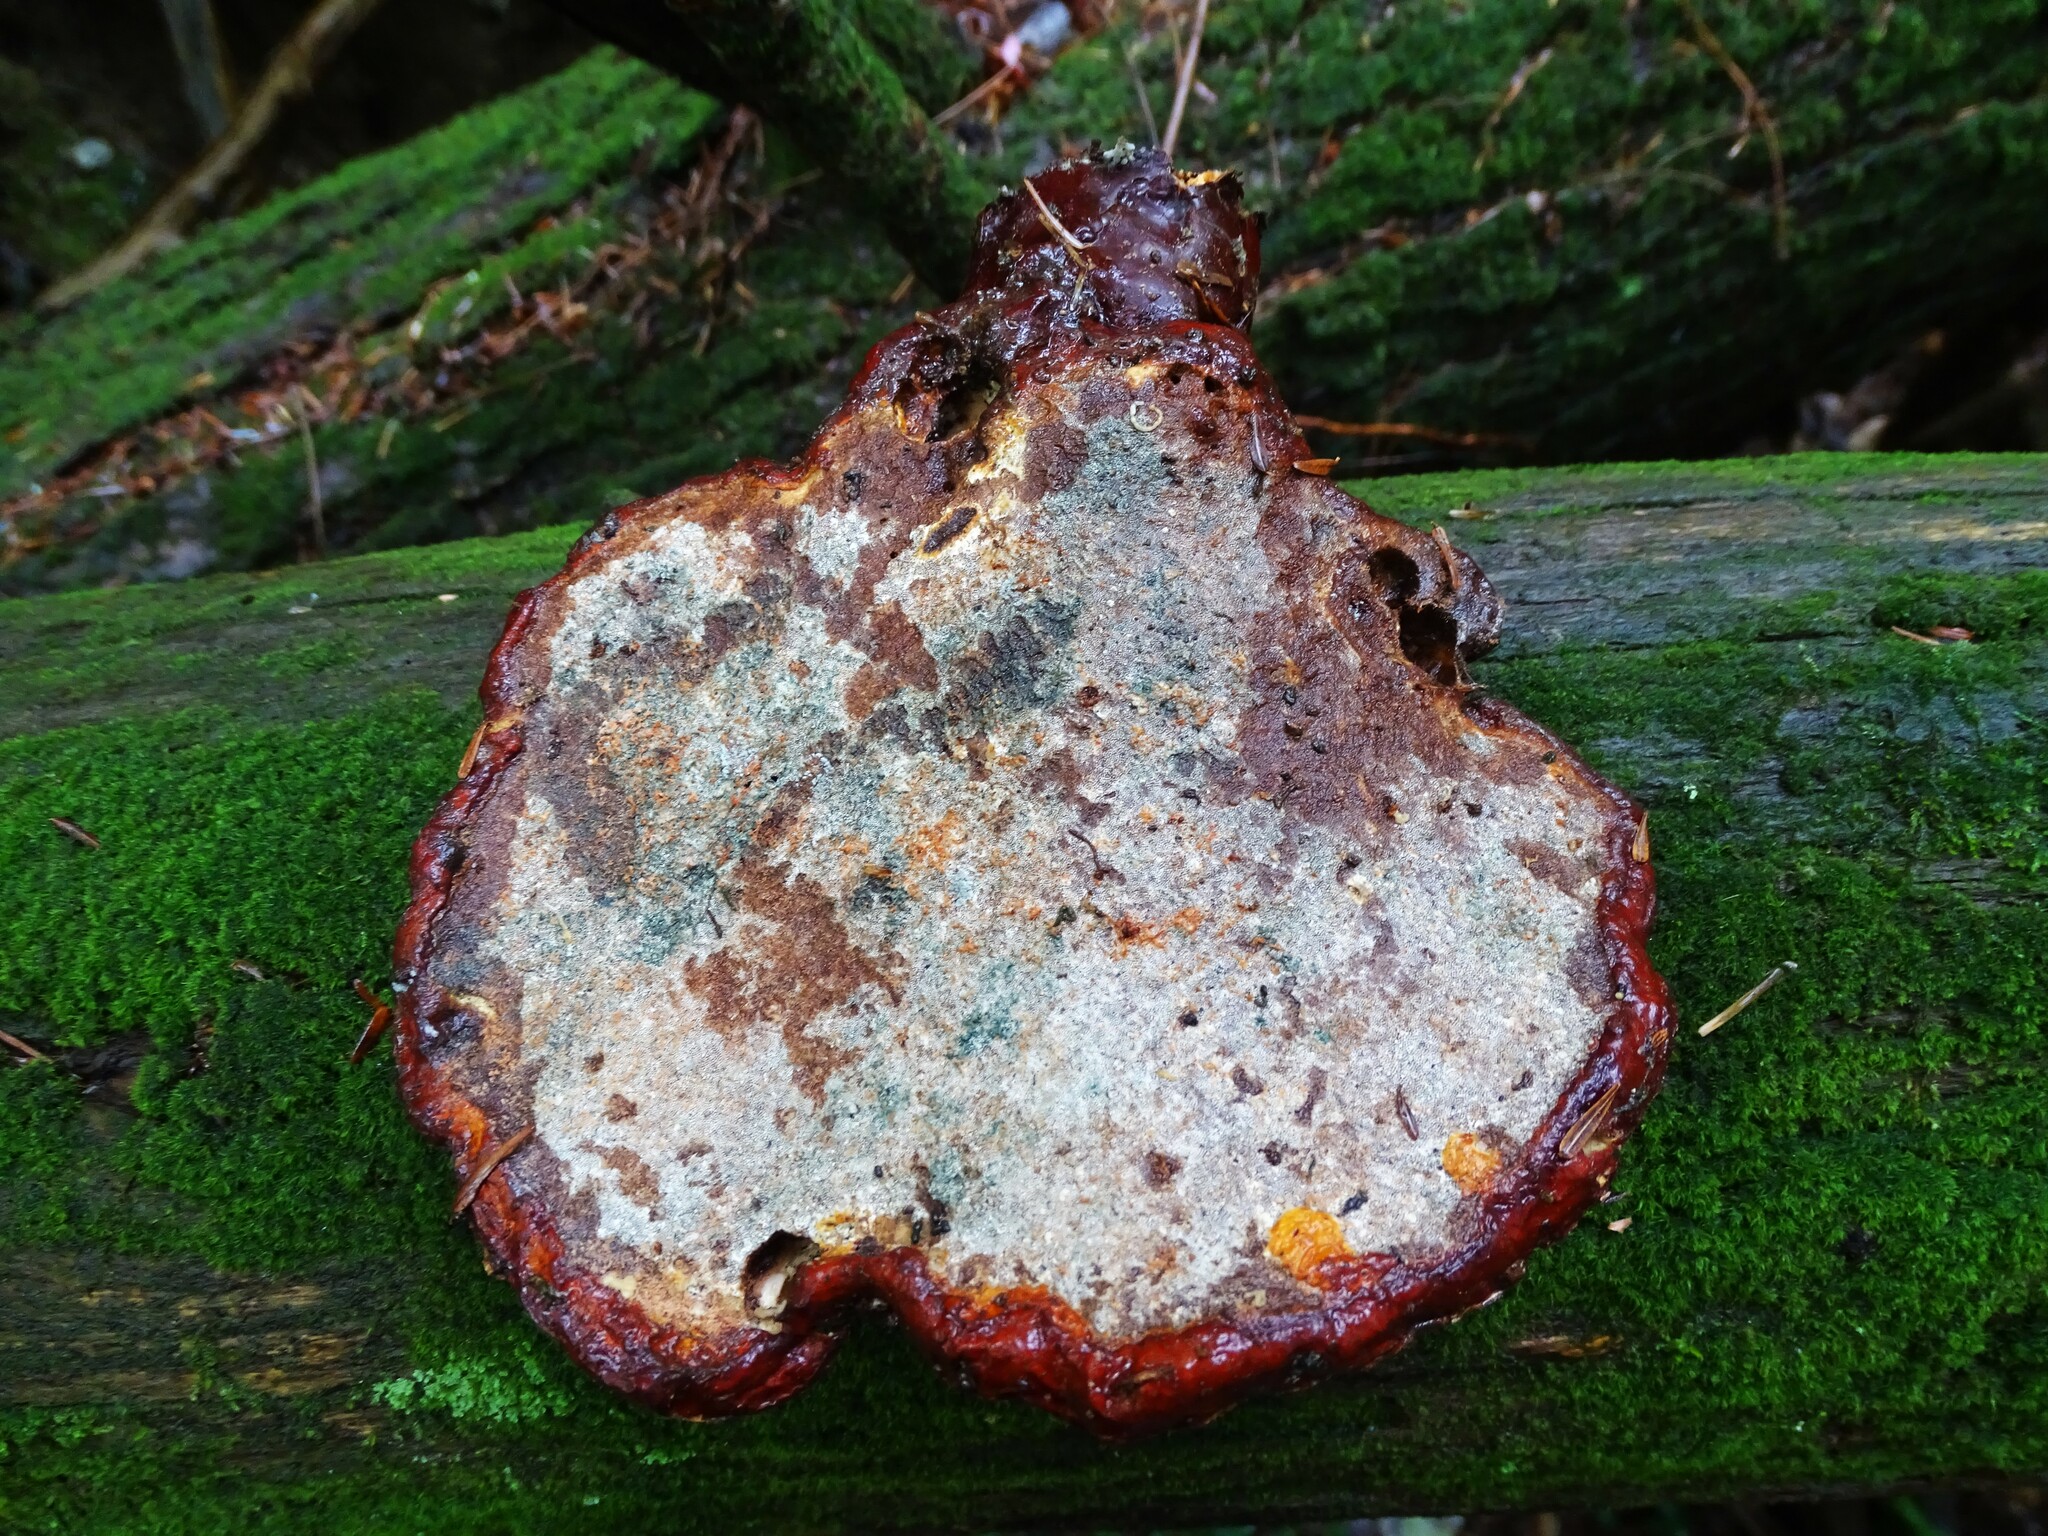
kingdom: Fungi
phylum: Basidiomycota
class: Agaricomycetes
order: Polyporales
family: Polyporaceae
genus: Ganoderma
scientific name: Ganoderma tsugae
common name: Hemlock varnish shelf
